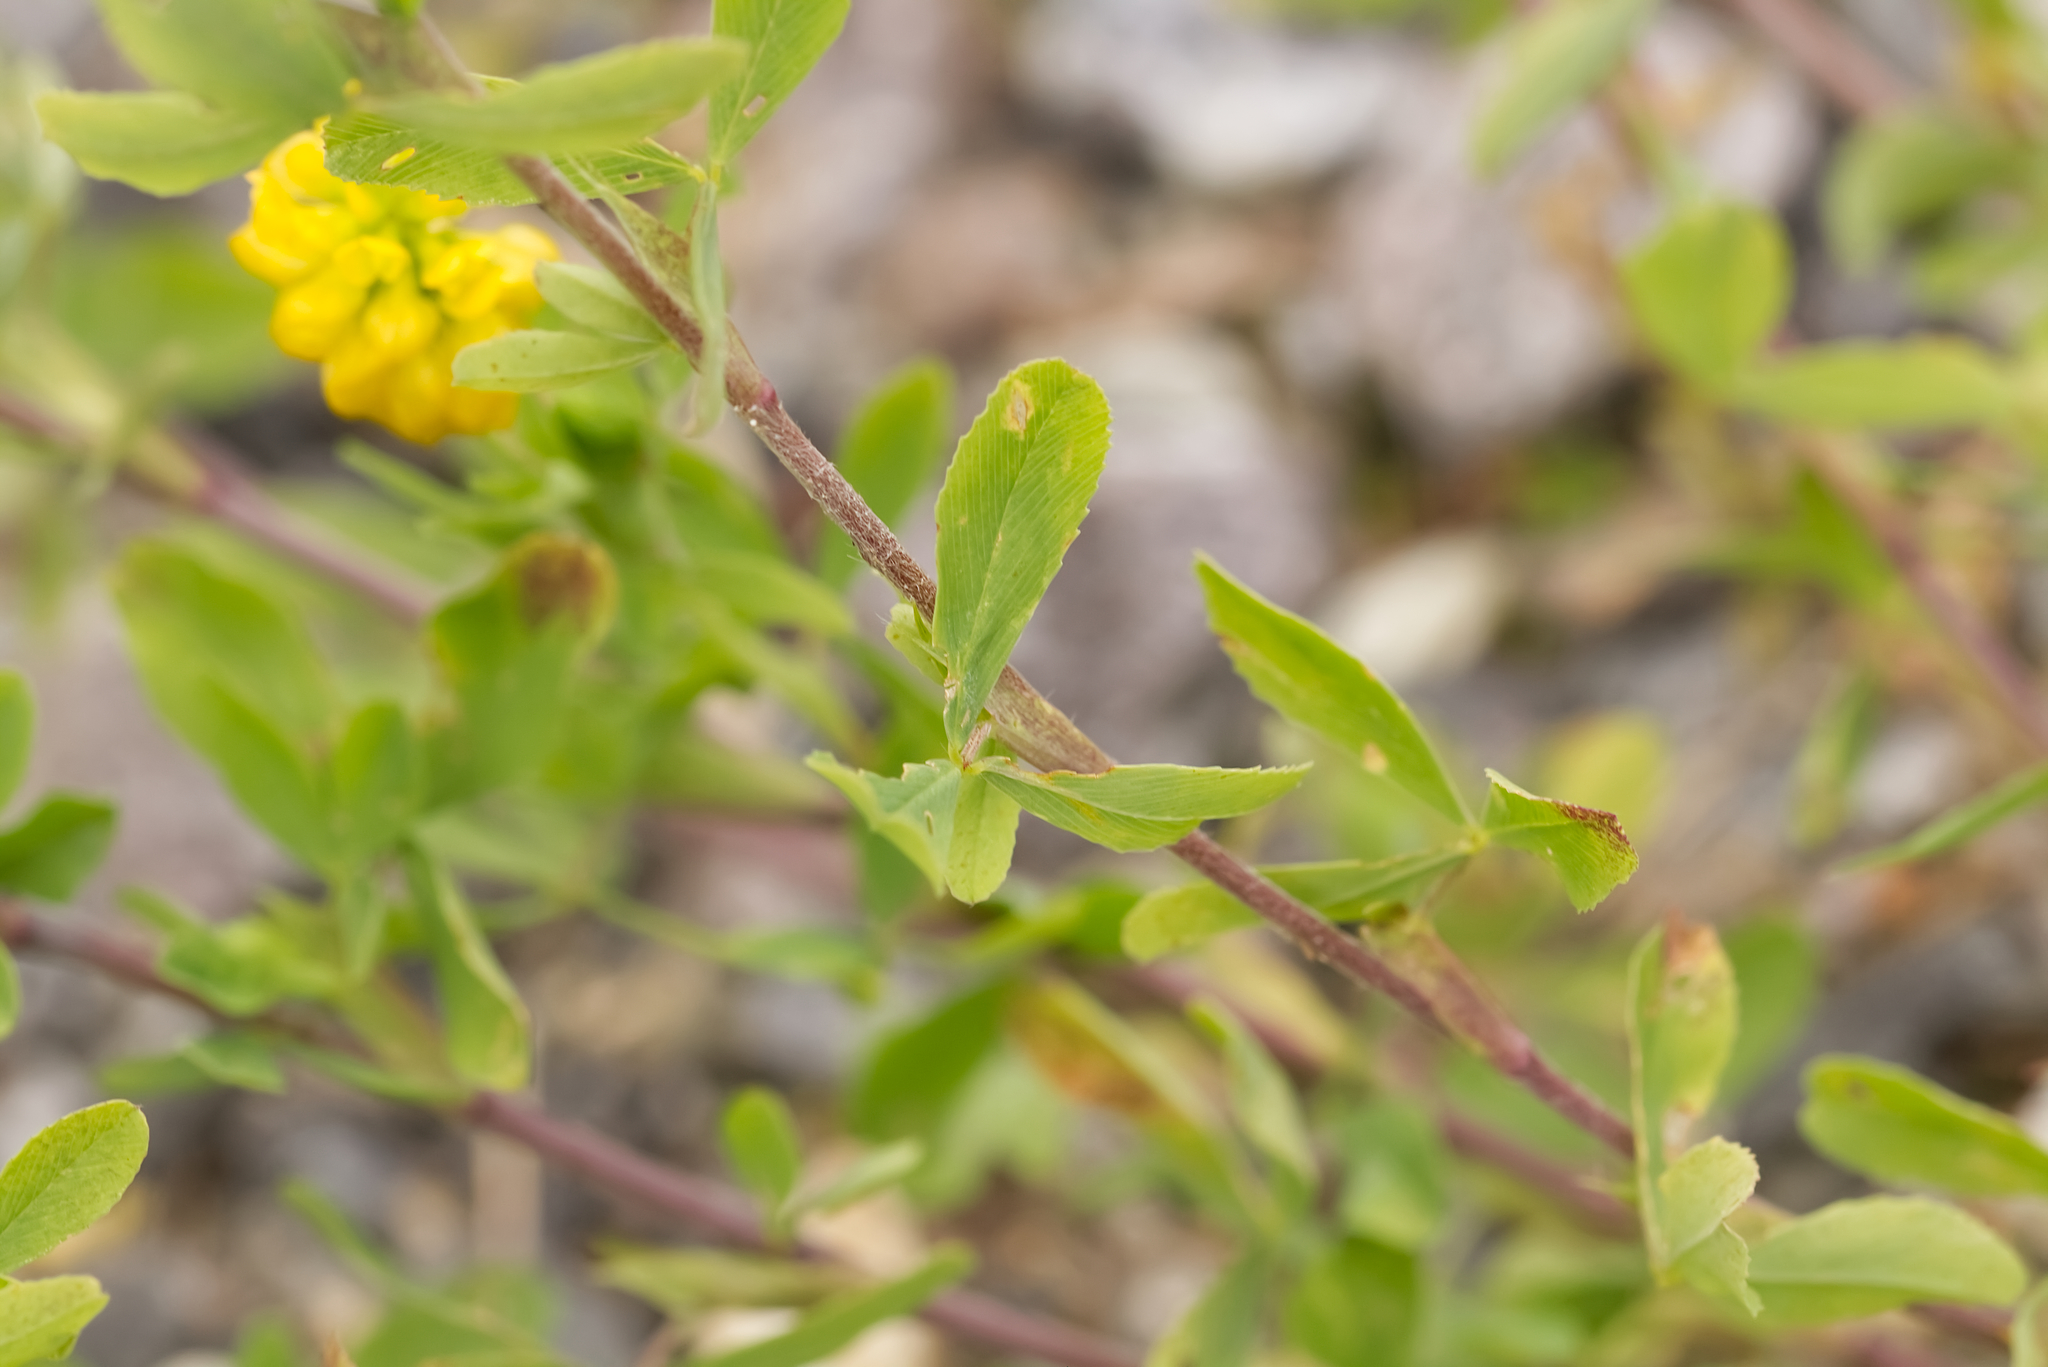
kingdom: Plantae
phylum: Tracheophyta
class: Magnoliopsida
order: Fabales
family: Fabaceae
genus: Trifolium
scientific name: Trifolium aureum
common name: Golden clover
